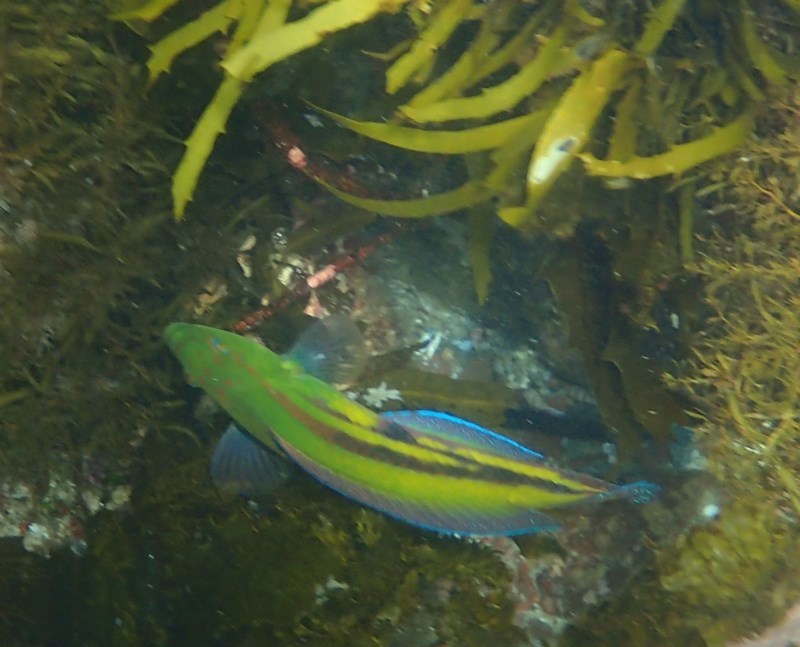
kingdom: Animalia
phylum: Chordata
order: Perciformes
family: Labridae
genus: Pictilabrus
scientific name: Pictilabrus laticlavius
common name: Patrician wrasse
